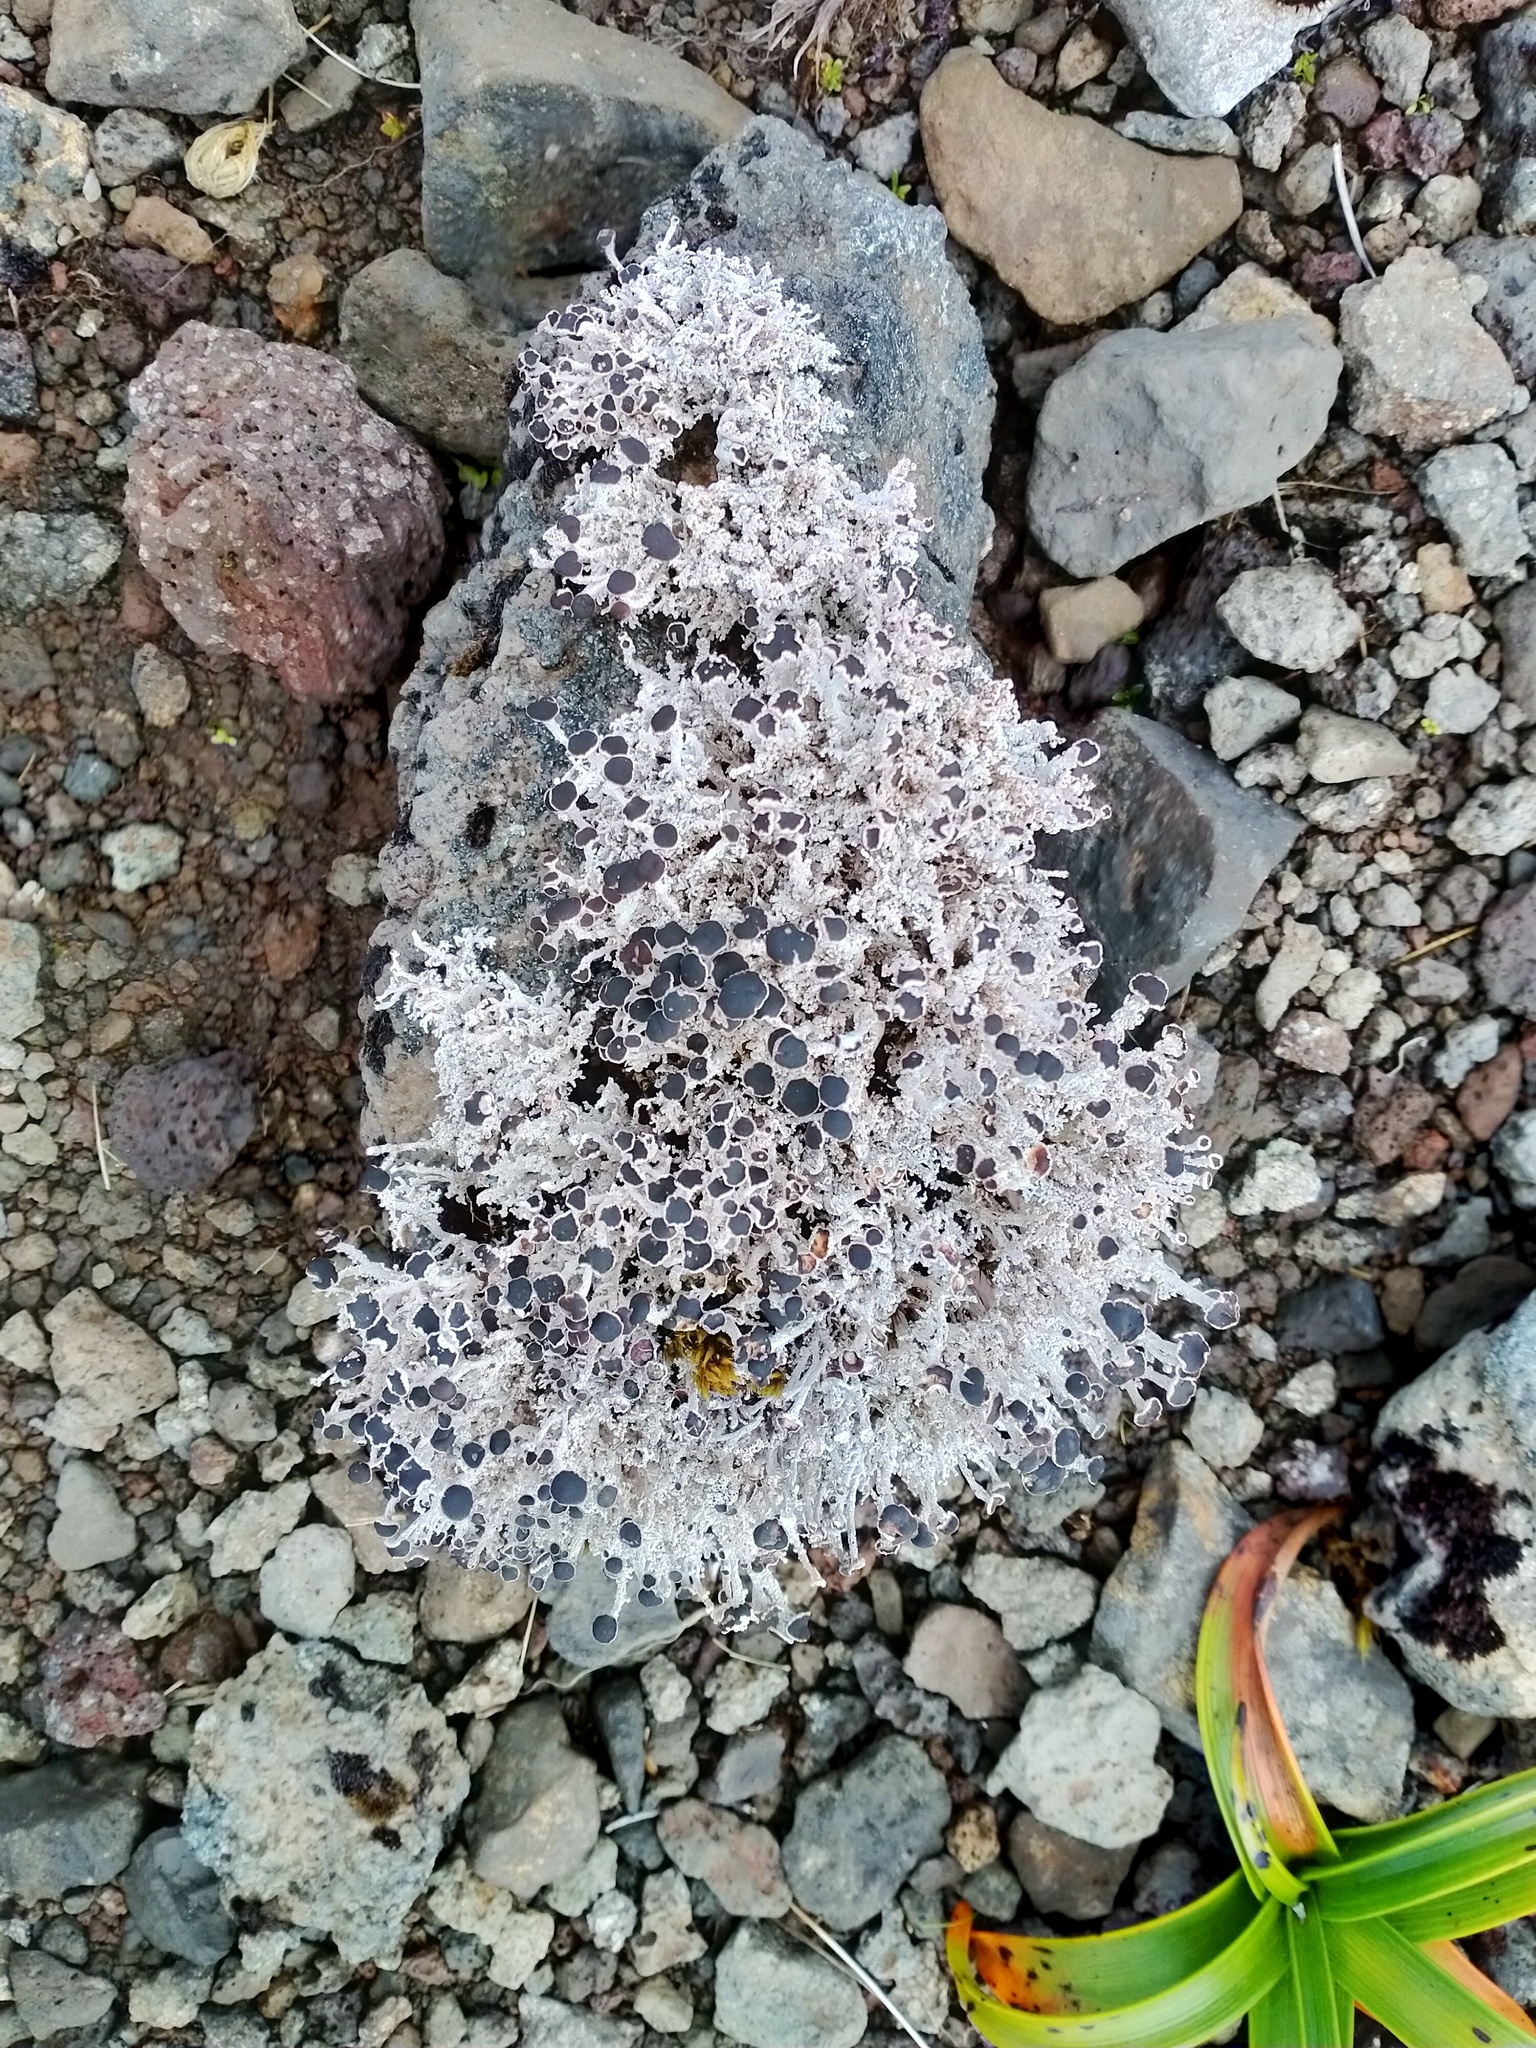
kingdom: Fungi
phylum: Ascomycota
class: Lecanoromycetes
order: Lecanorales
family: Stereocaulaceae
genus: Stereocaulon
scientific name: Stereocaulon argus
